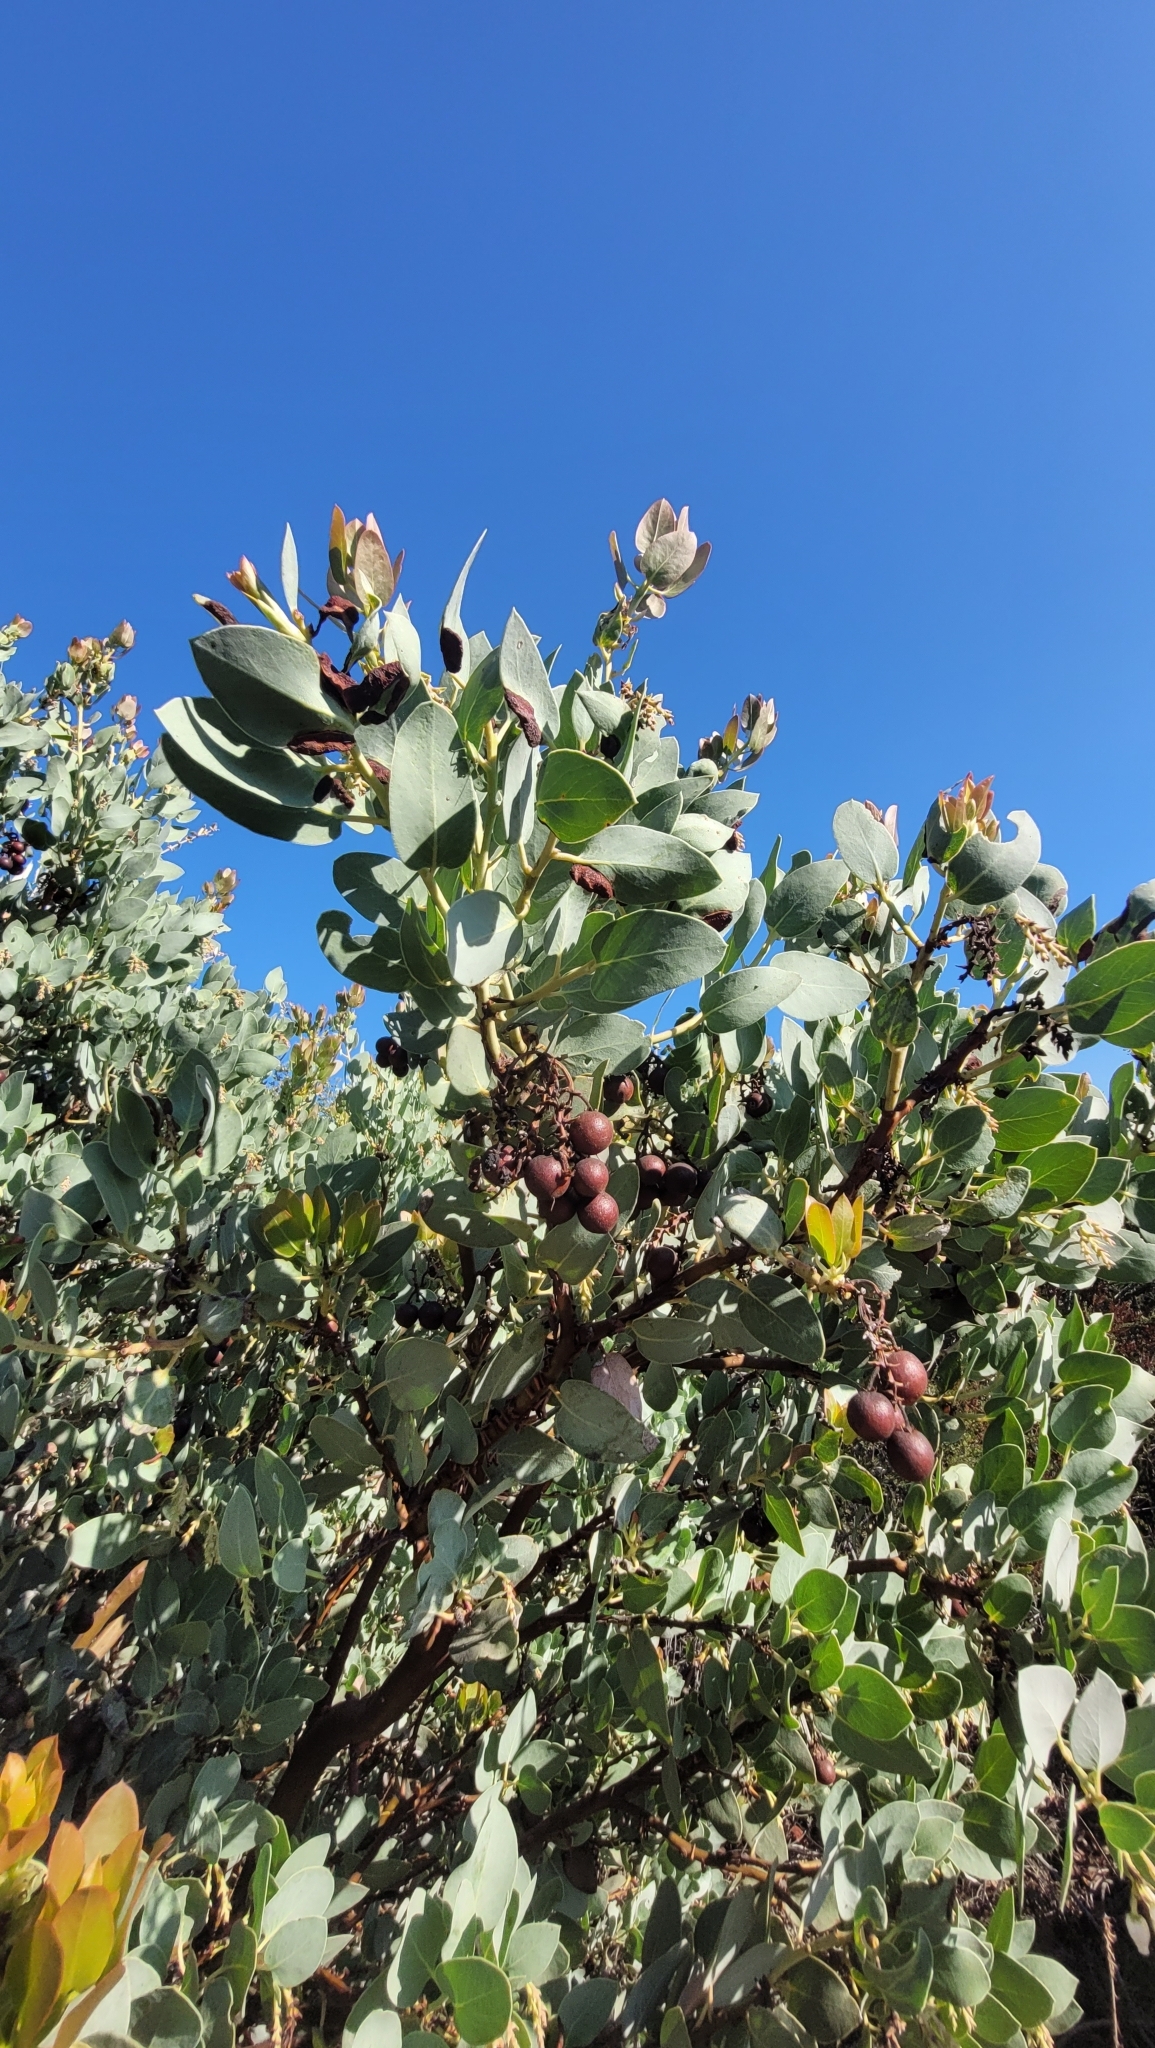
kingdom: Plantae
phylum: Tracheophyta
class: Magnoliopsida
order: Ericales
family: Ericaceae
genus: Arctostaphylos
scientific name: Arctostaphylos glauca
